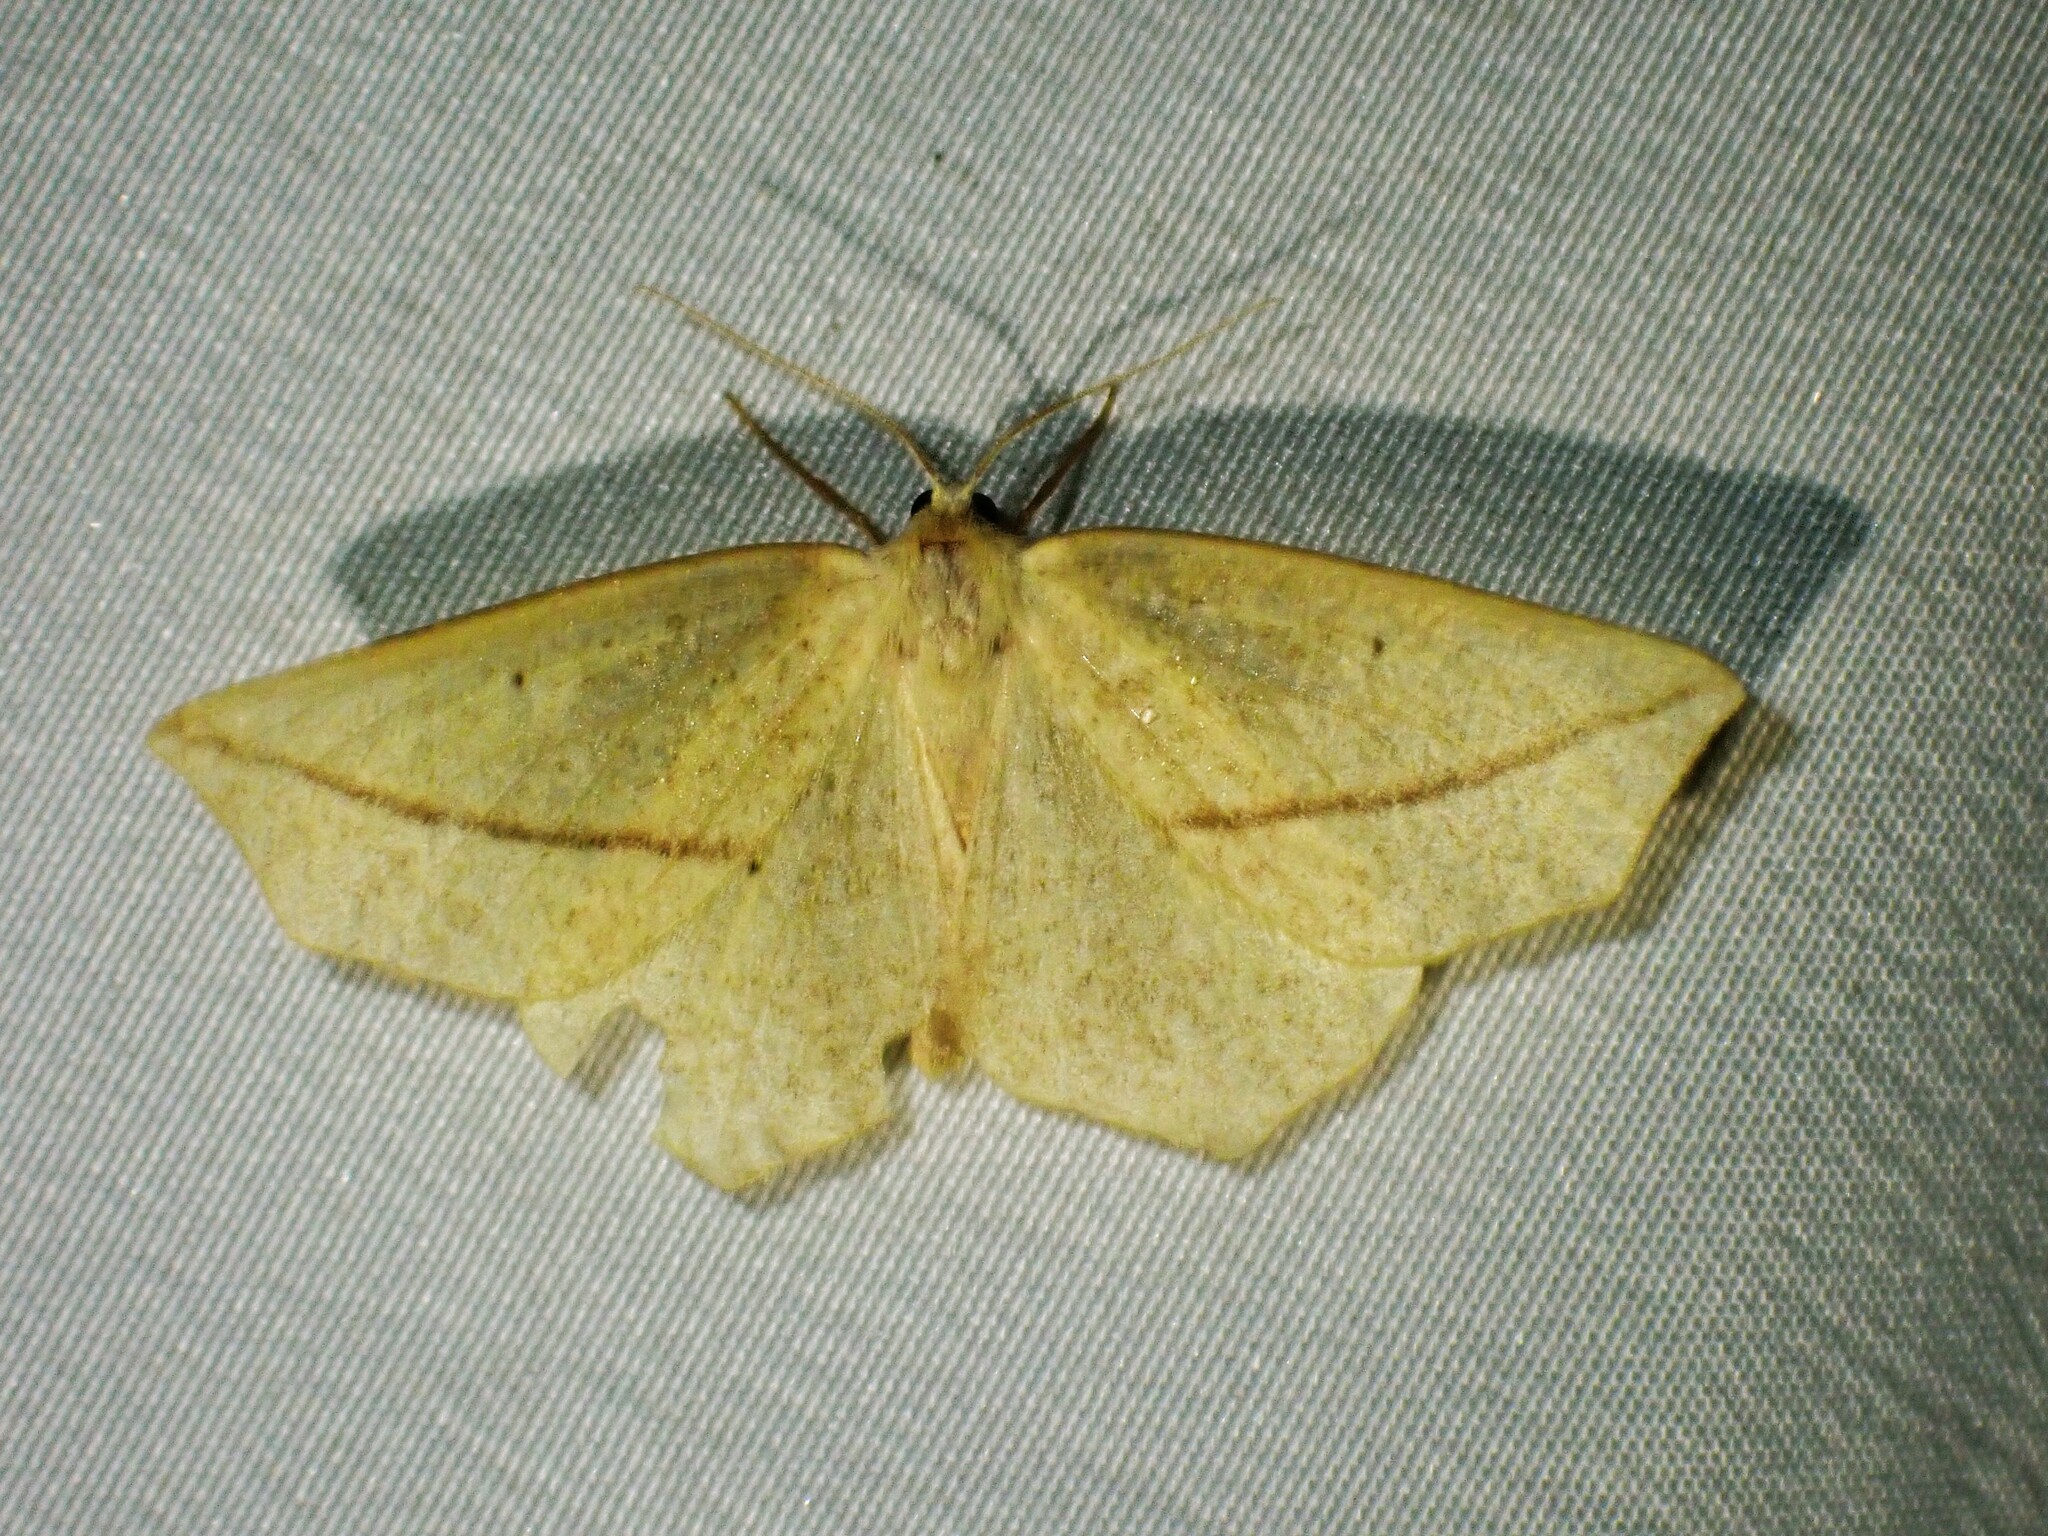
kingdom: Animalia
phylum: Arthropoda
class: Insecta
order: Lepidoptera
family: Geometridae
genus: Tetracis
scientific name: Tetracis crocallata
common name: Yellow slant-line
